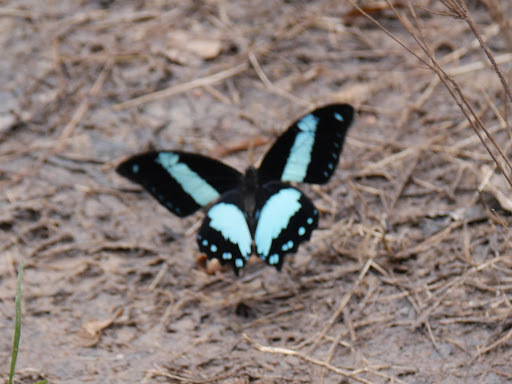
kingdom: Animalia
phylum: Arthropoda
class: Insecta
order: Lepidoptera
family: Papilionidae
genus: Papilio
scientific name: Papilio chrapkowskoides
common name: Broadly green-banded swallowtail
